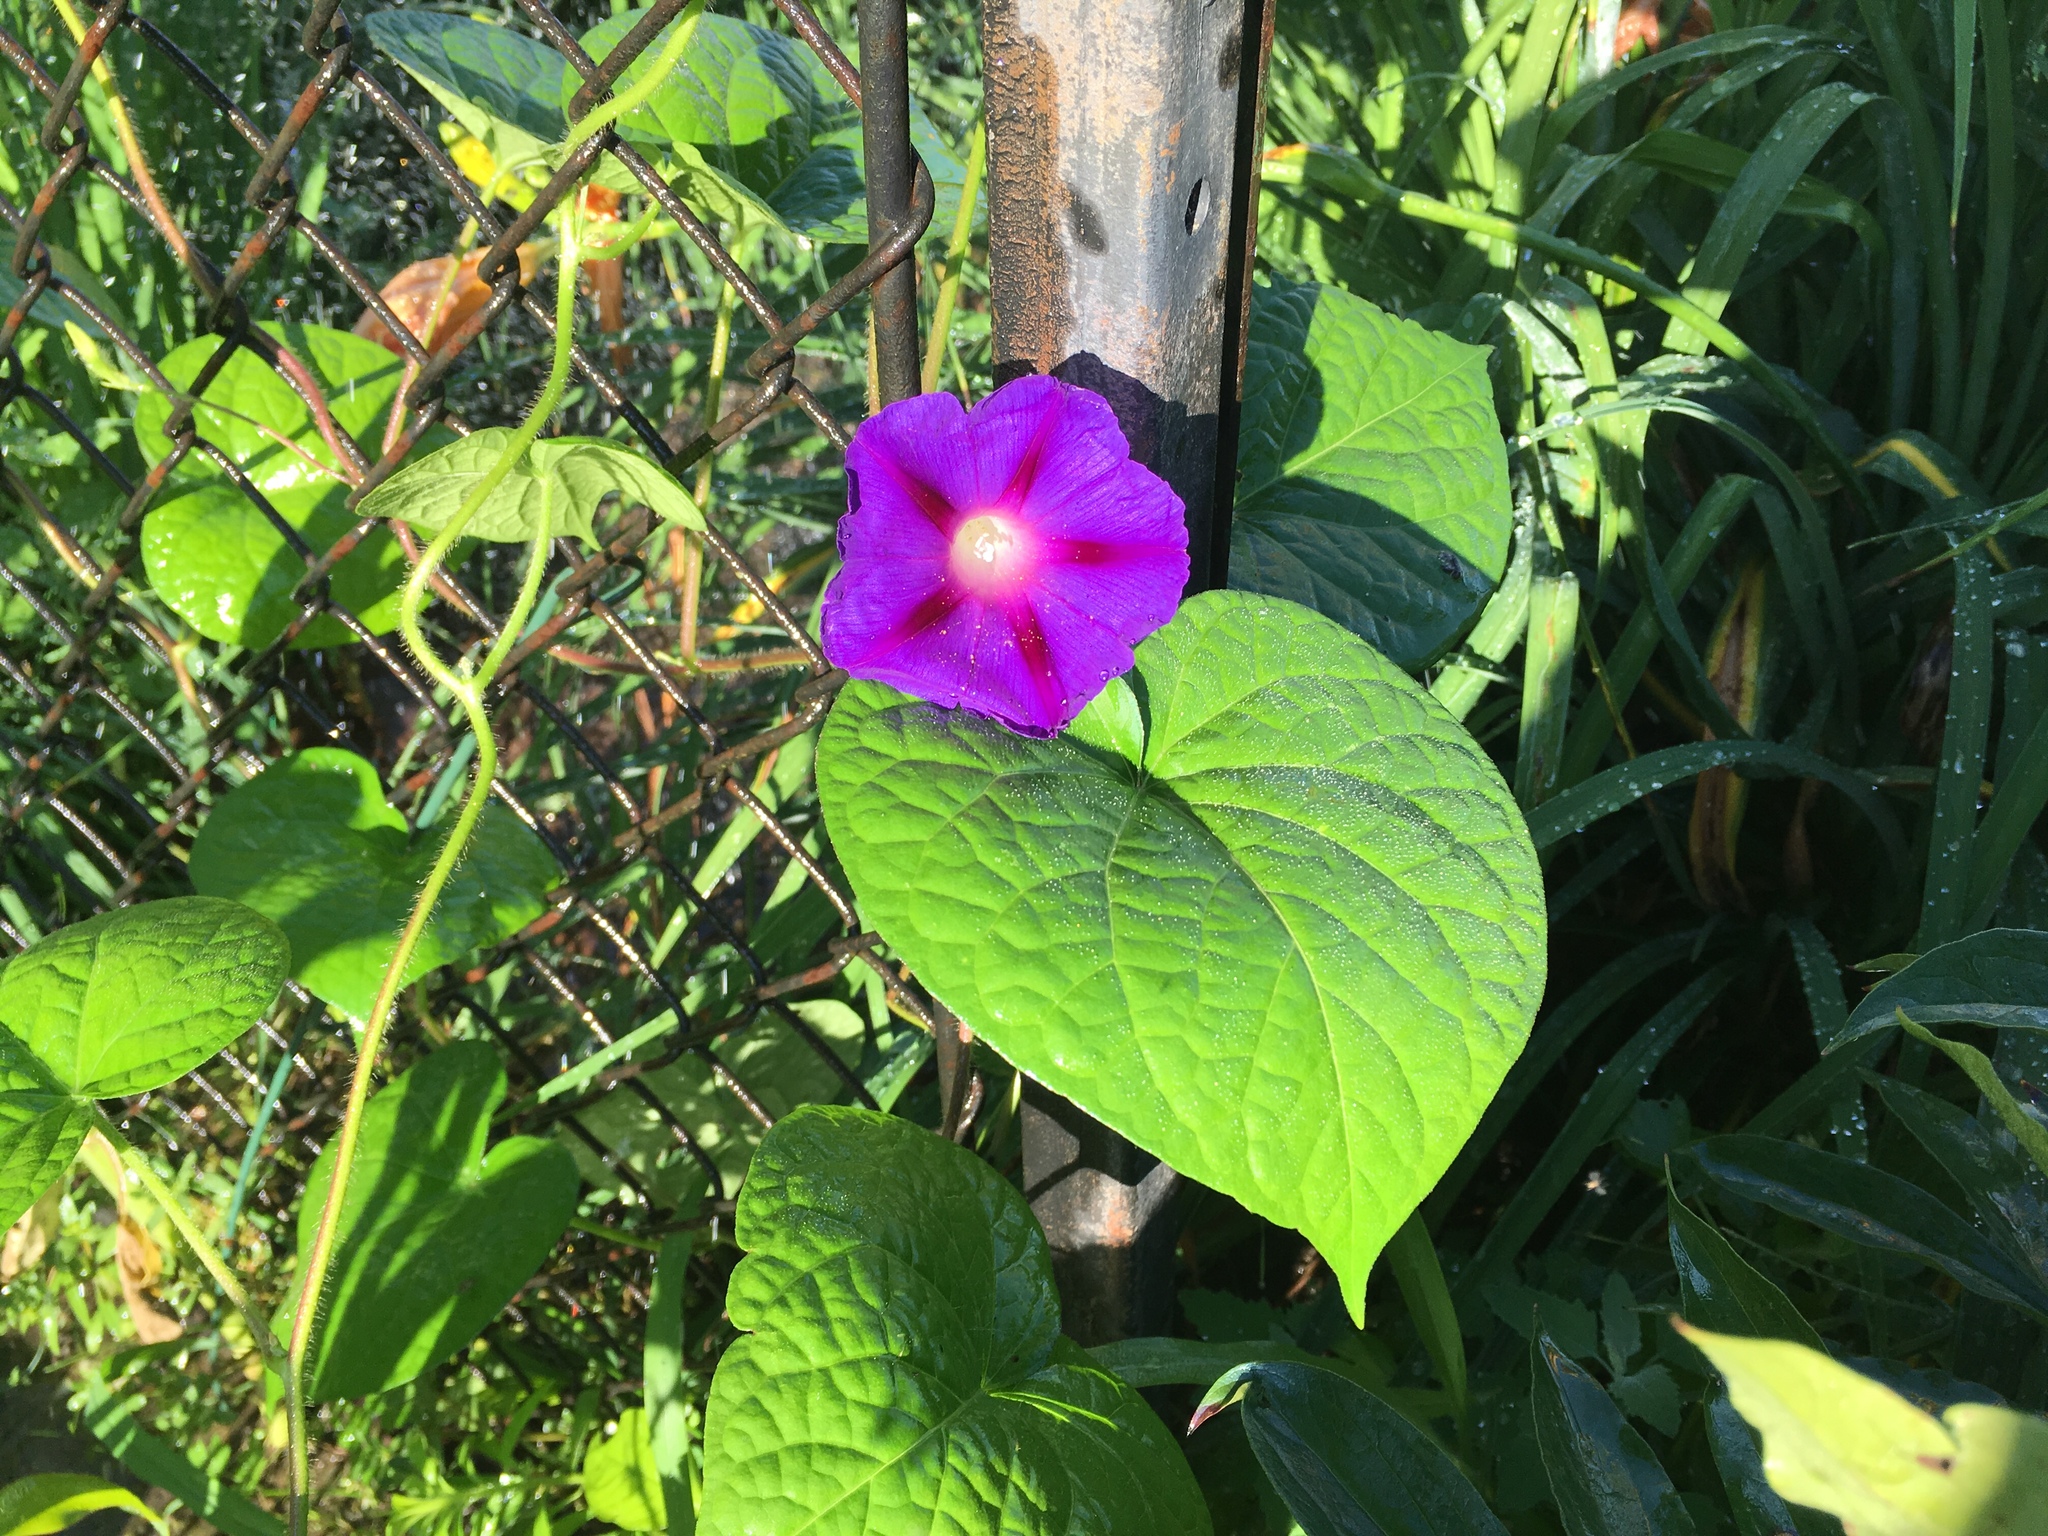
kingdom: Plantae
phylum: Tracheophyta
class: Magnoliopsida
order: Solanales
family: Convolvulaceae
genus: Ipomoea
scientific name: Ipomoea purpurea
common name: Common morning-glory
